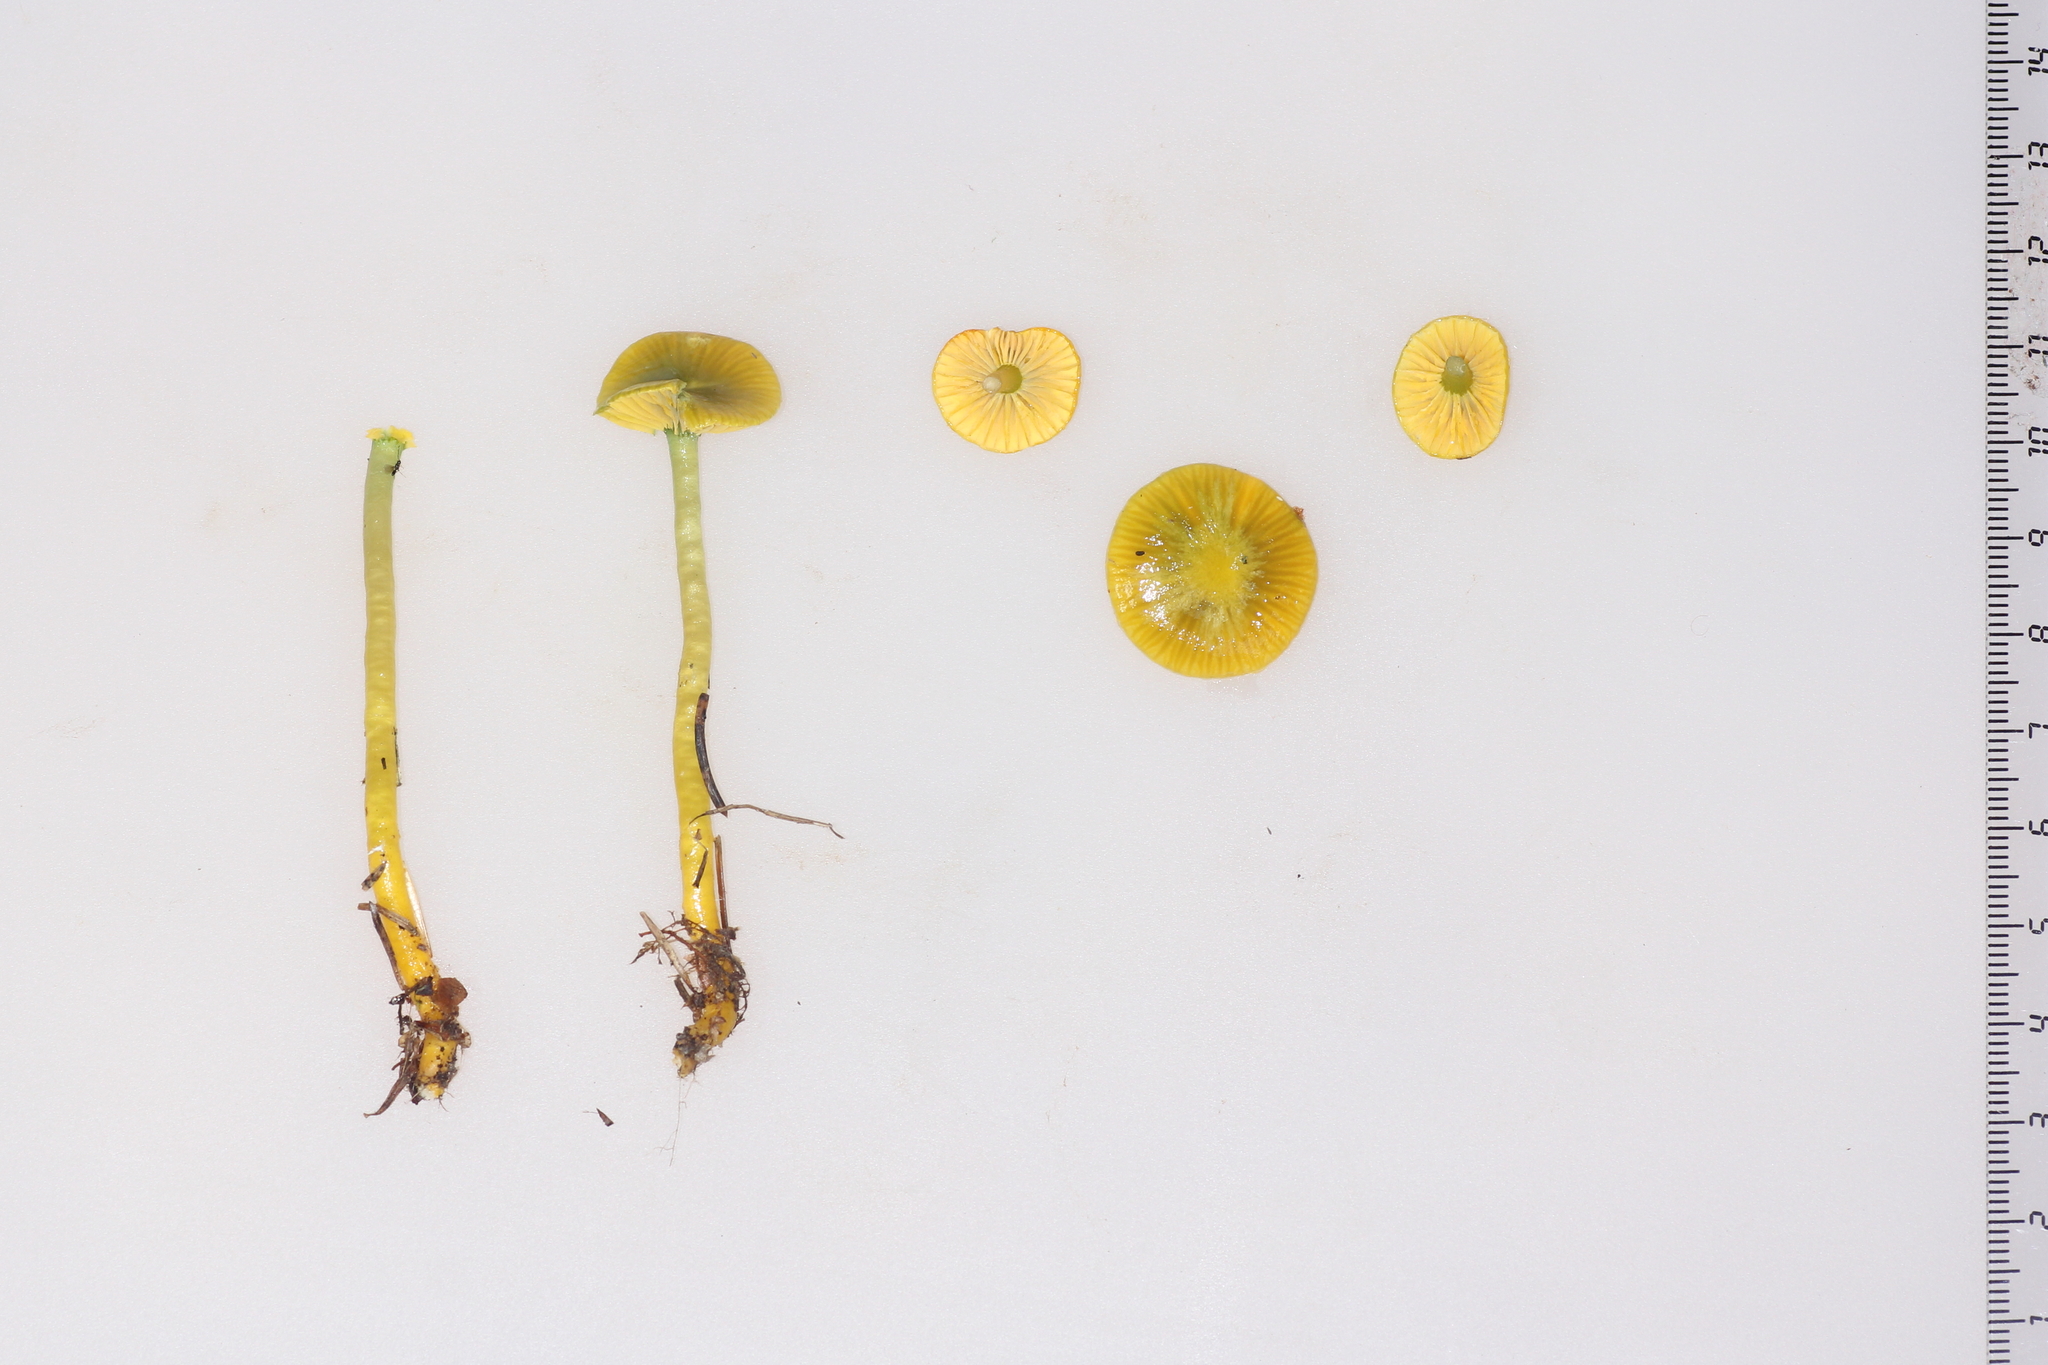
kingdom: Fungi
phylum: Basidiomycota
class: Agaricomycetes
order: Agaricales
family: Hygrophoraceae
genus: Gliophorus
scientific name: Gliophorus psittacinus
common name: Parrot wax-cap
